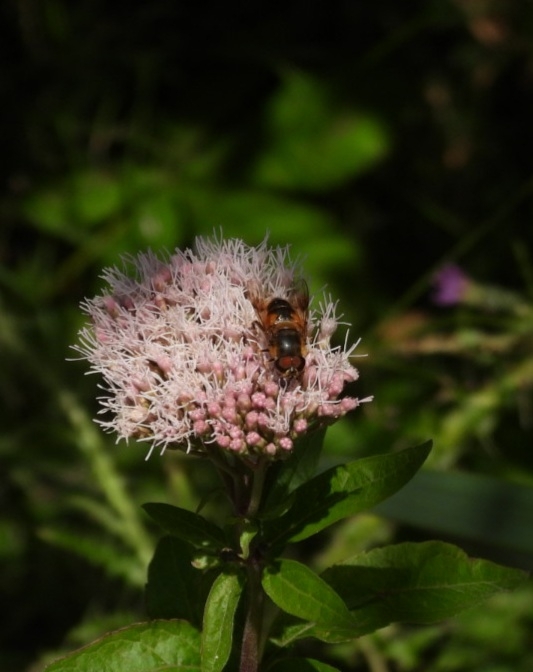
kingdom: Animalia
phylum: Arthropoda
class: Insecta
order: Diptera
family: Syrphidae
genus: Eoseristalis
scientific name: Eoseristalis
